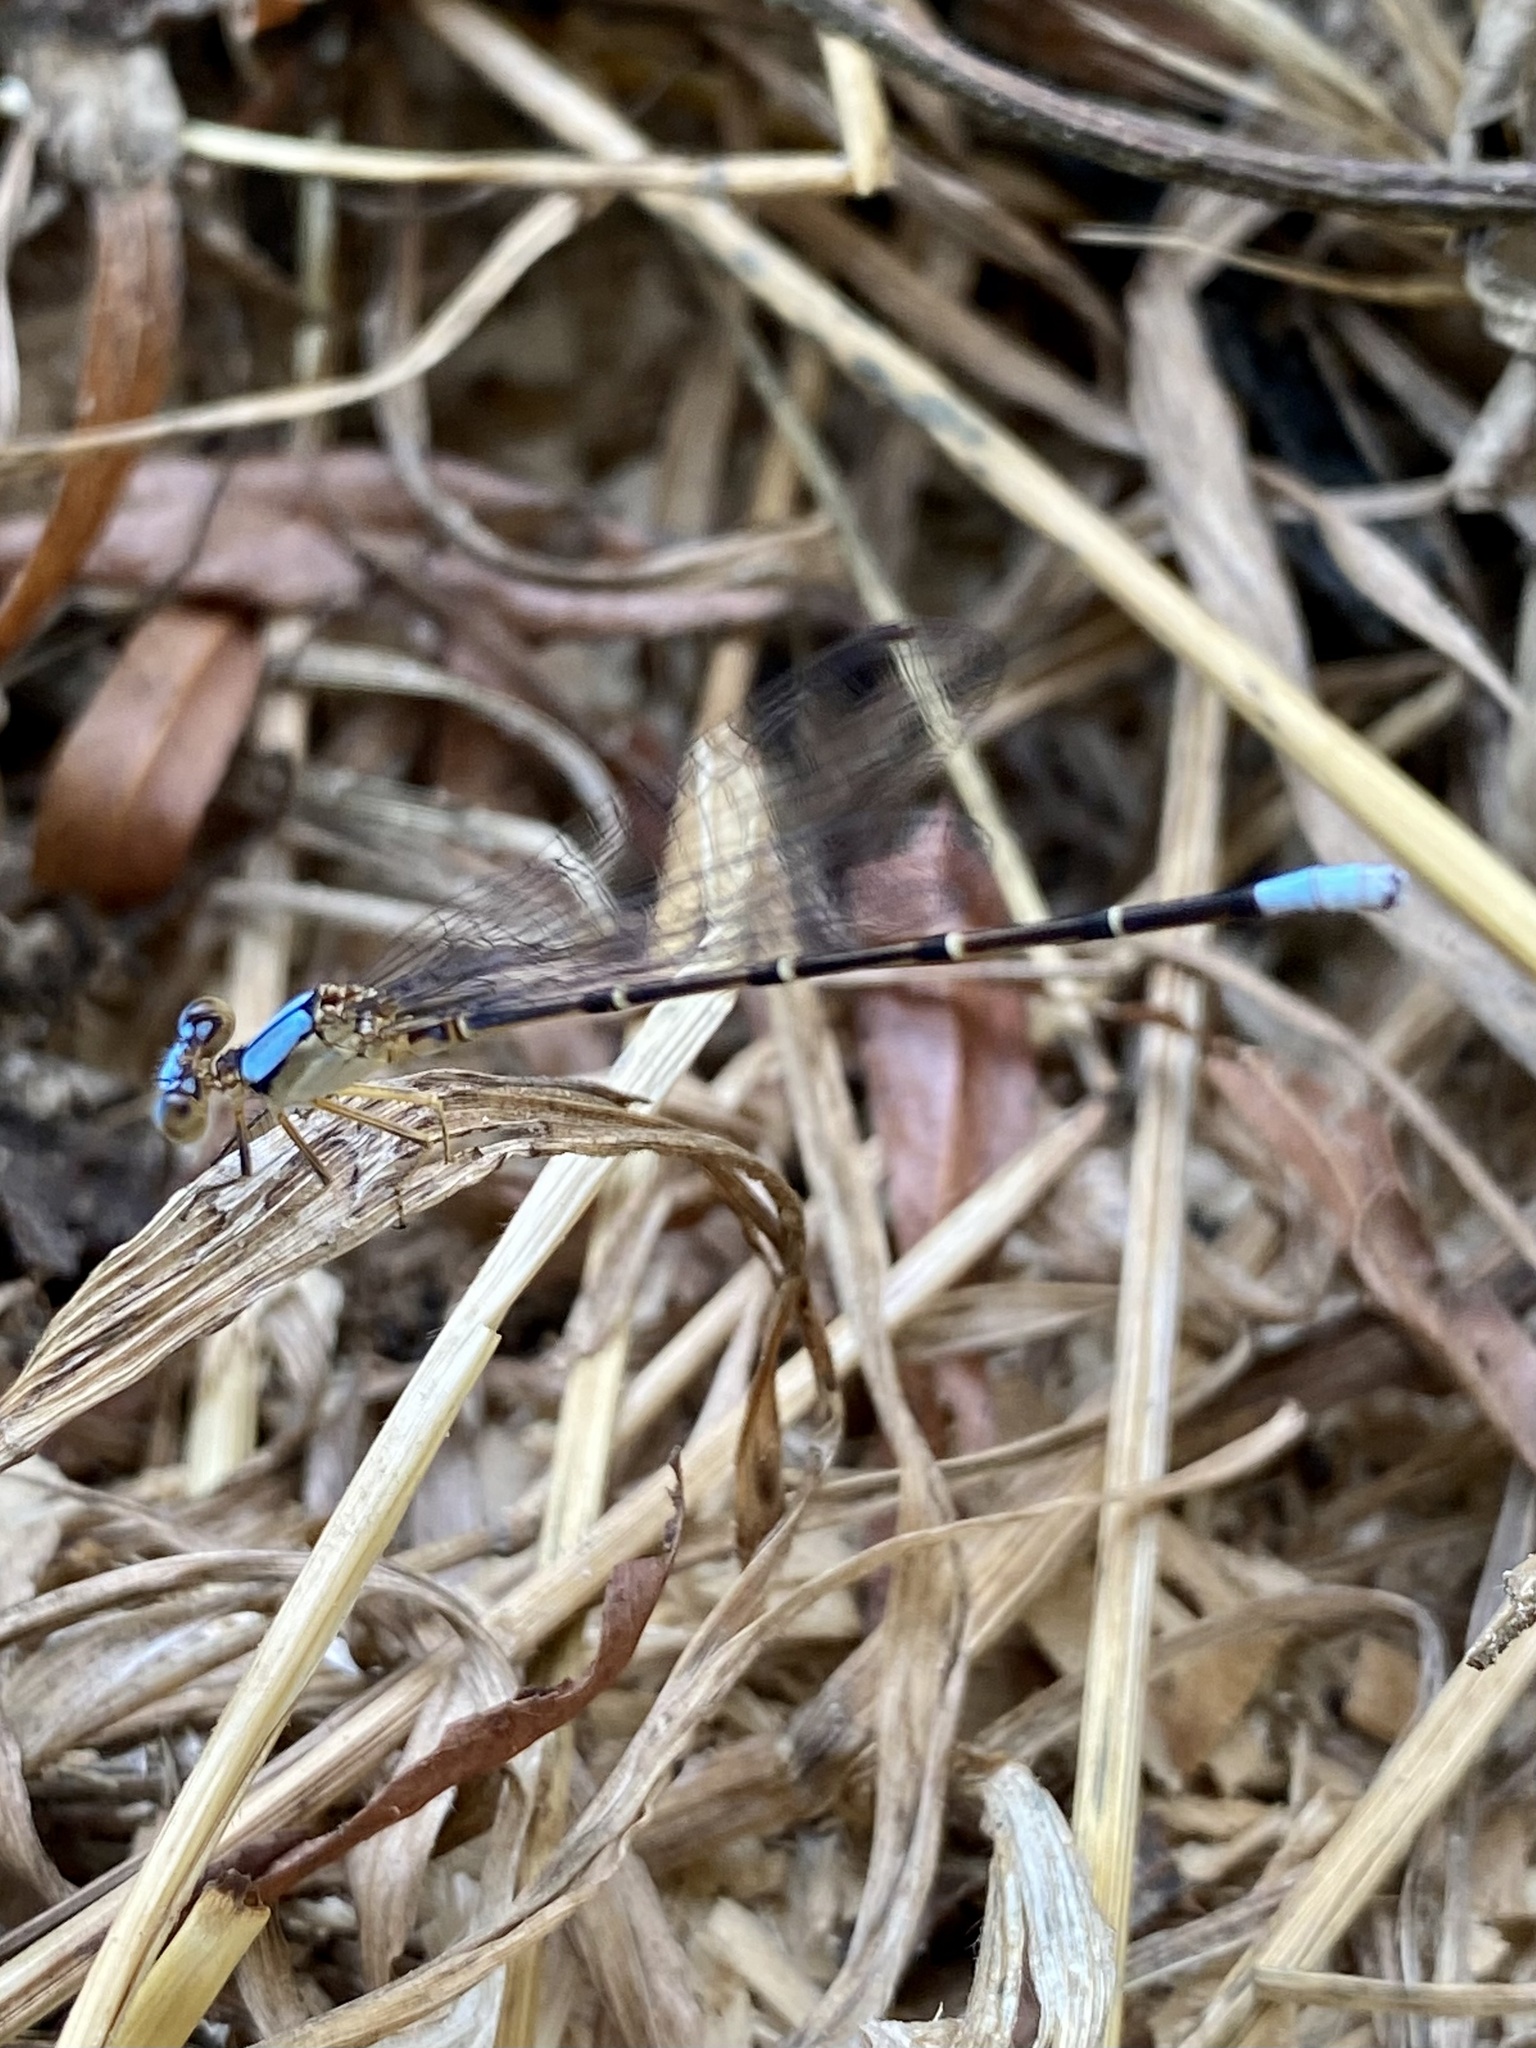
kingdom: Animalia
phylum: Arthropoda
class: Insecta
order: Odonata
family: Coenagrionidae
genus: Argia
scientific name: Argia apicalis
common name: Blue-fronted dancer
